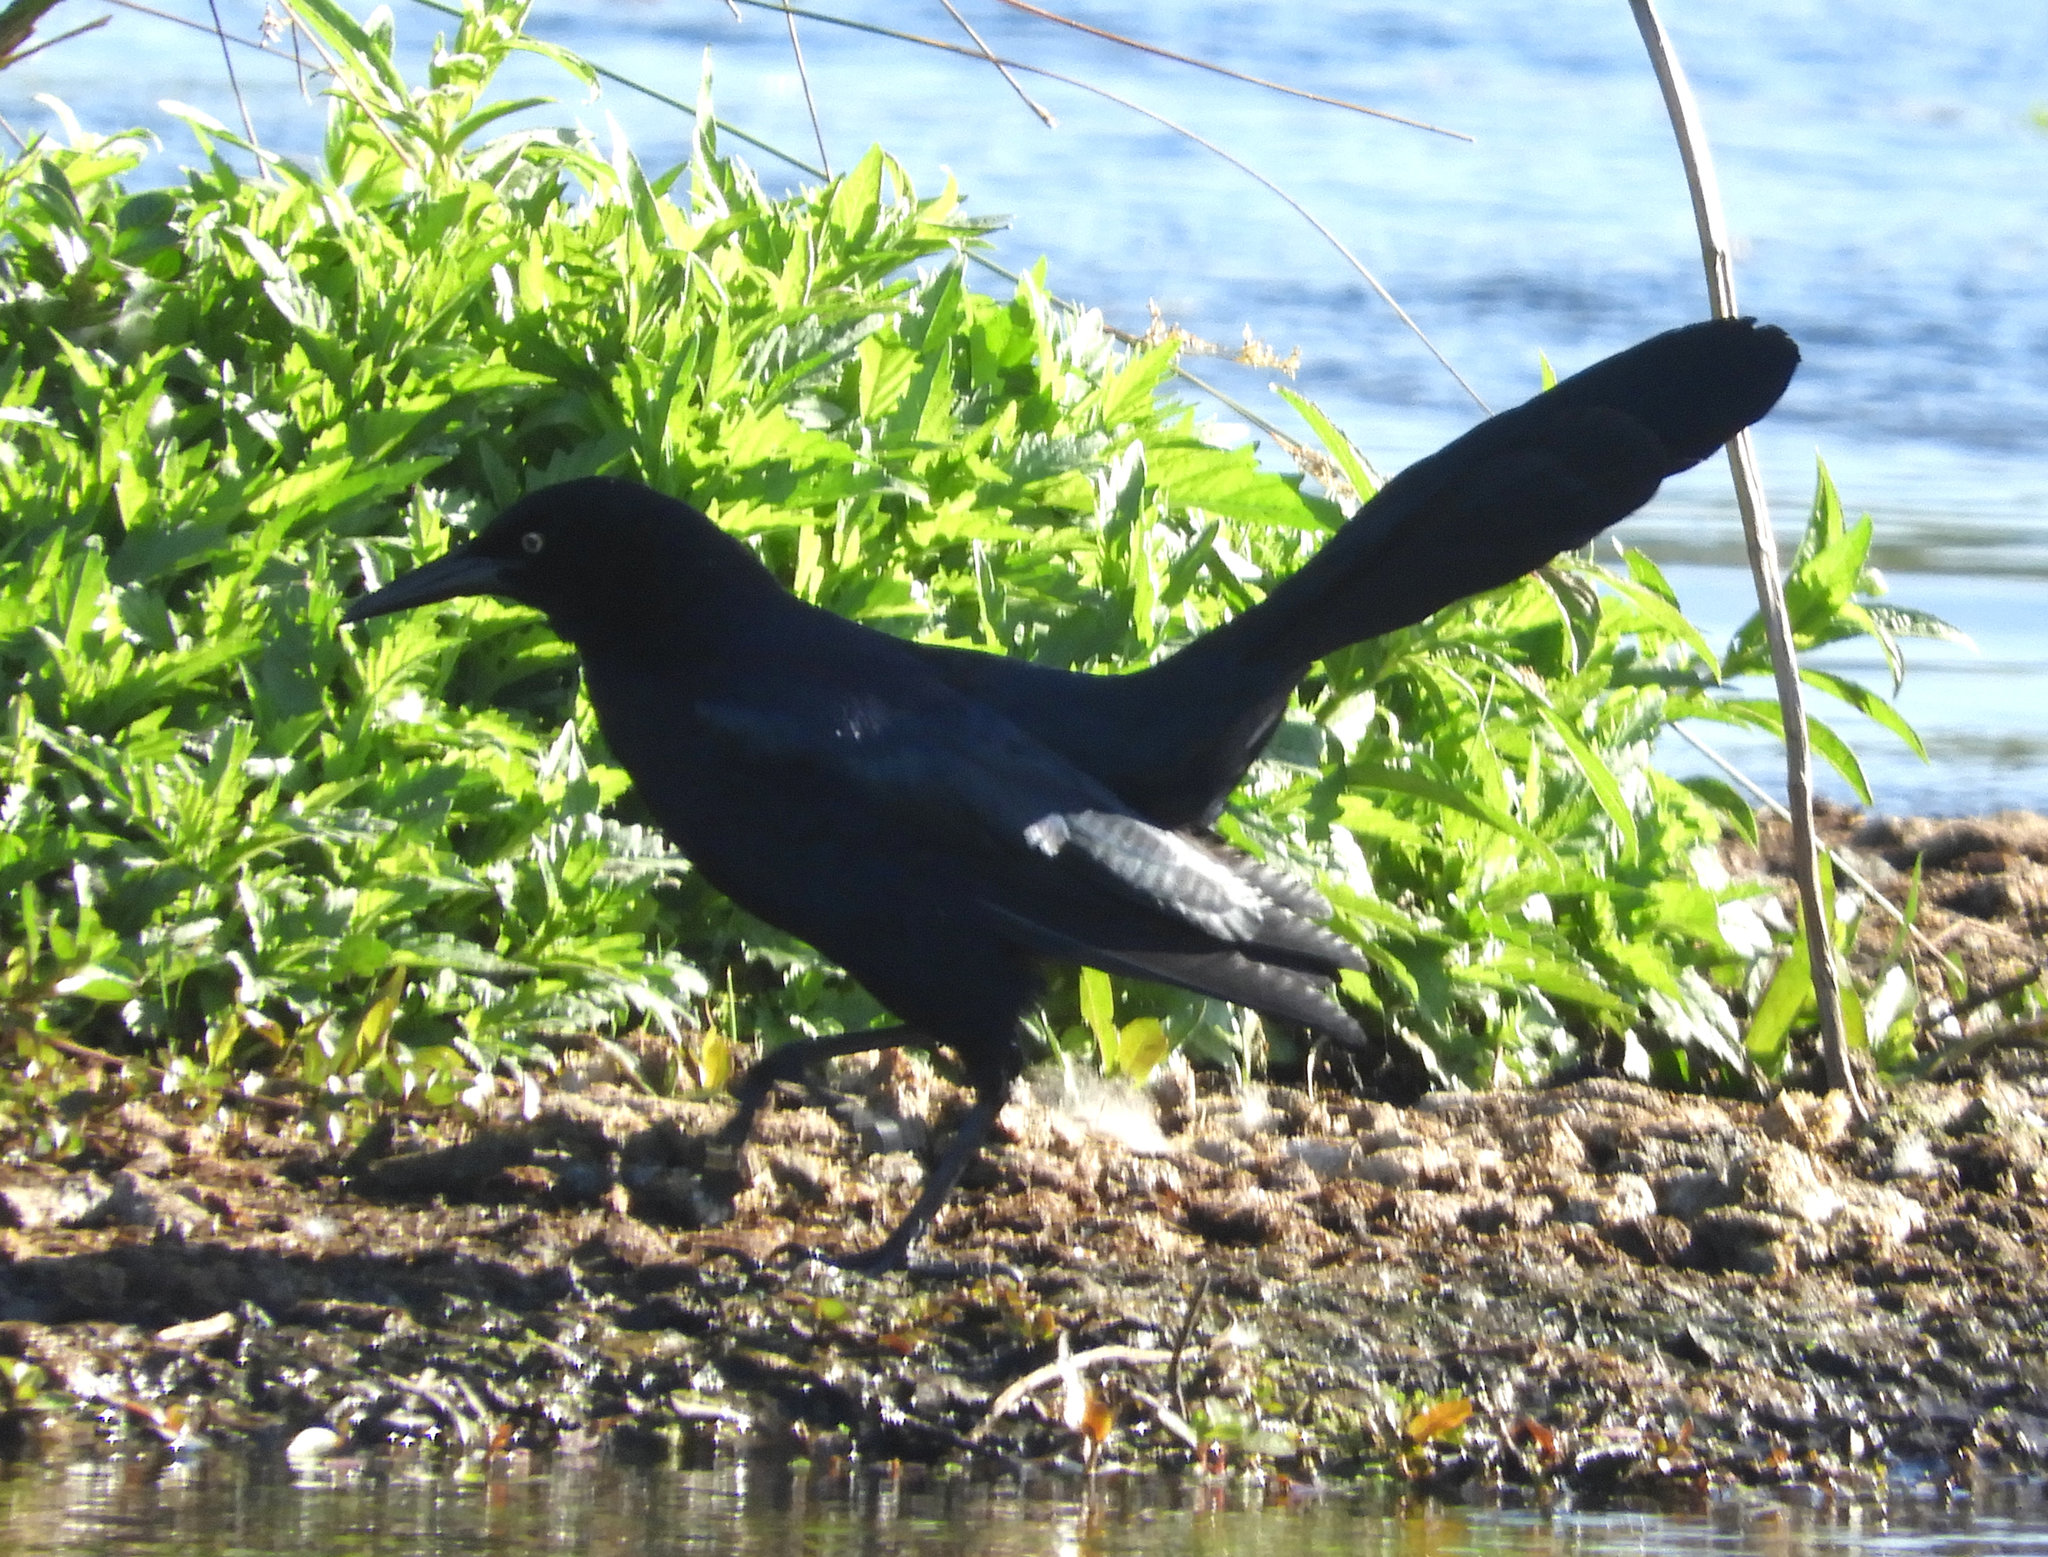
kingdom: Animalia
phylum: Chordata
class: Aves
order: Passeriformes
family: Icteridae
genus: Quiscalus
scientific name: Quiscalus mexicanus
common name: Great-tailed grackle
